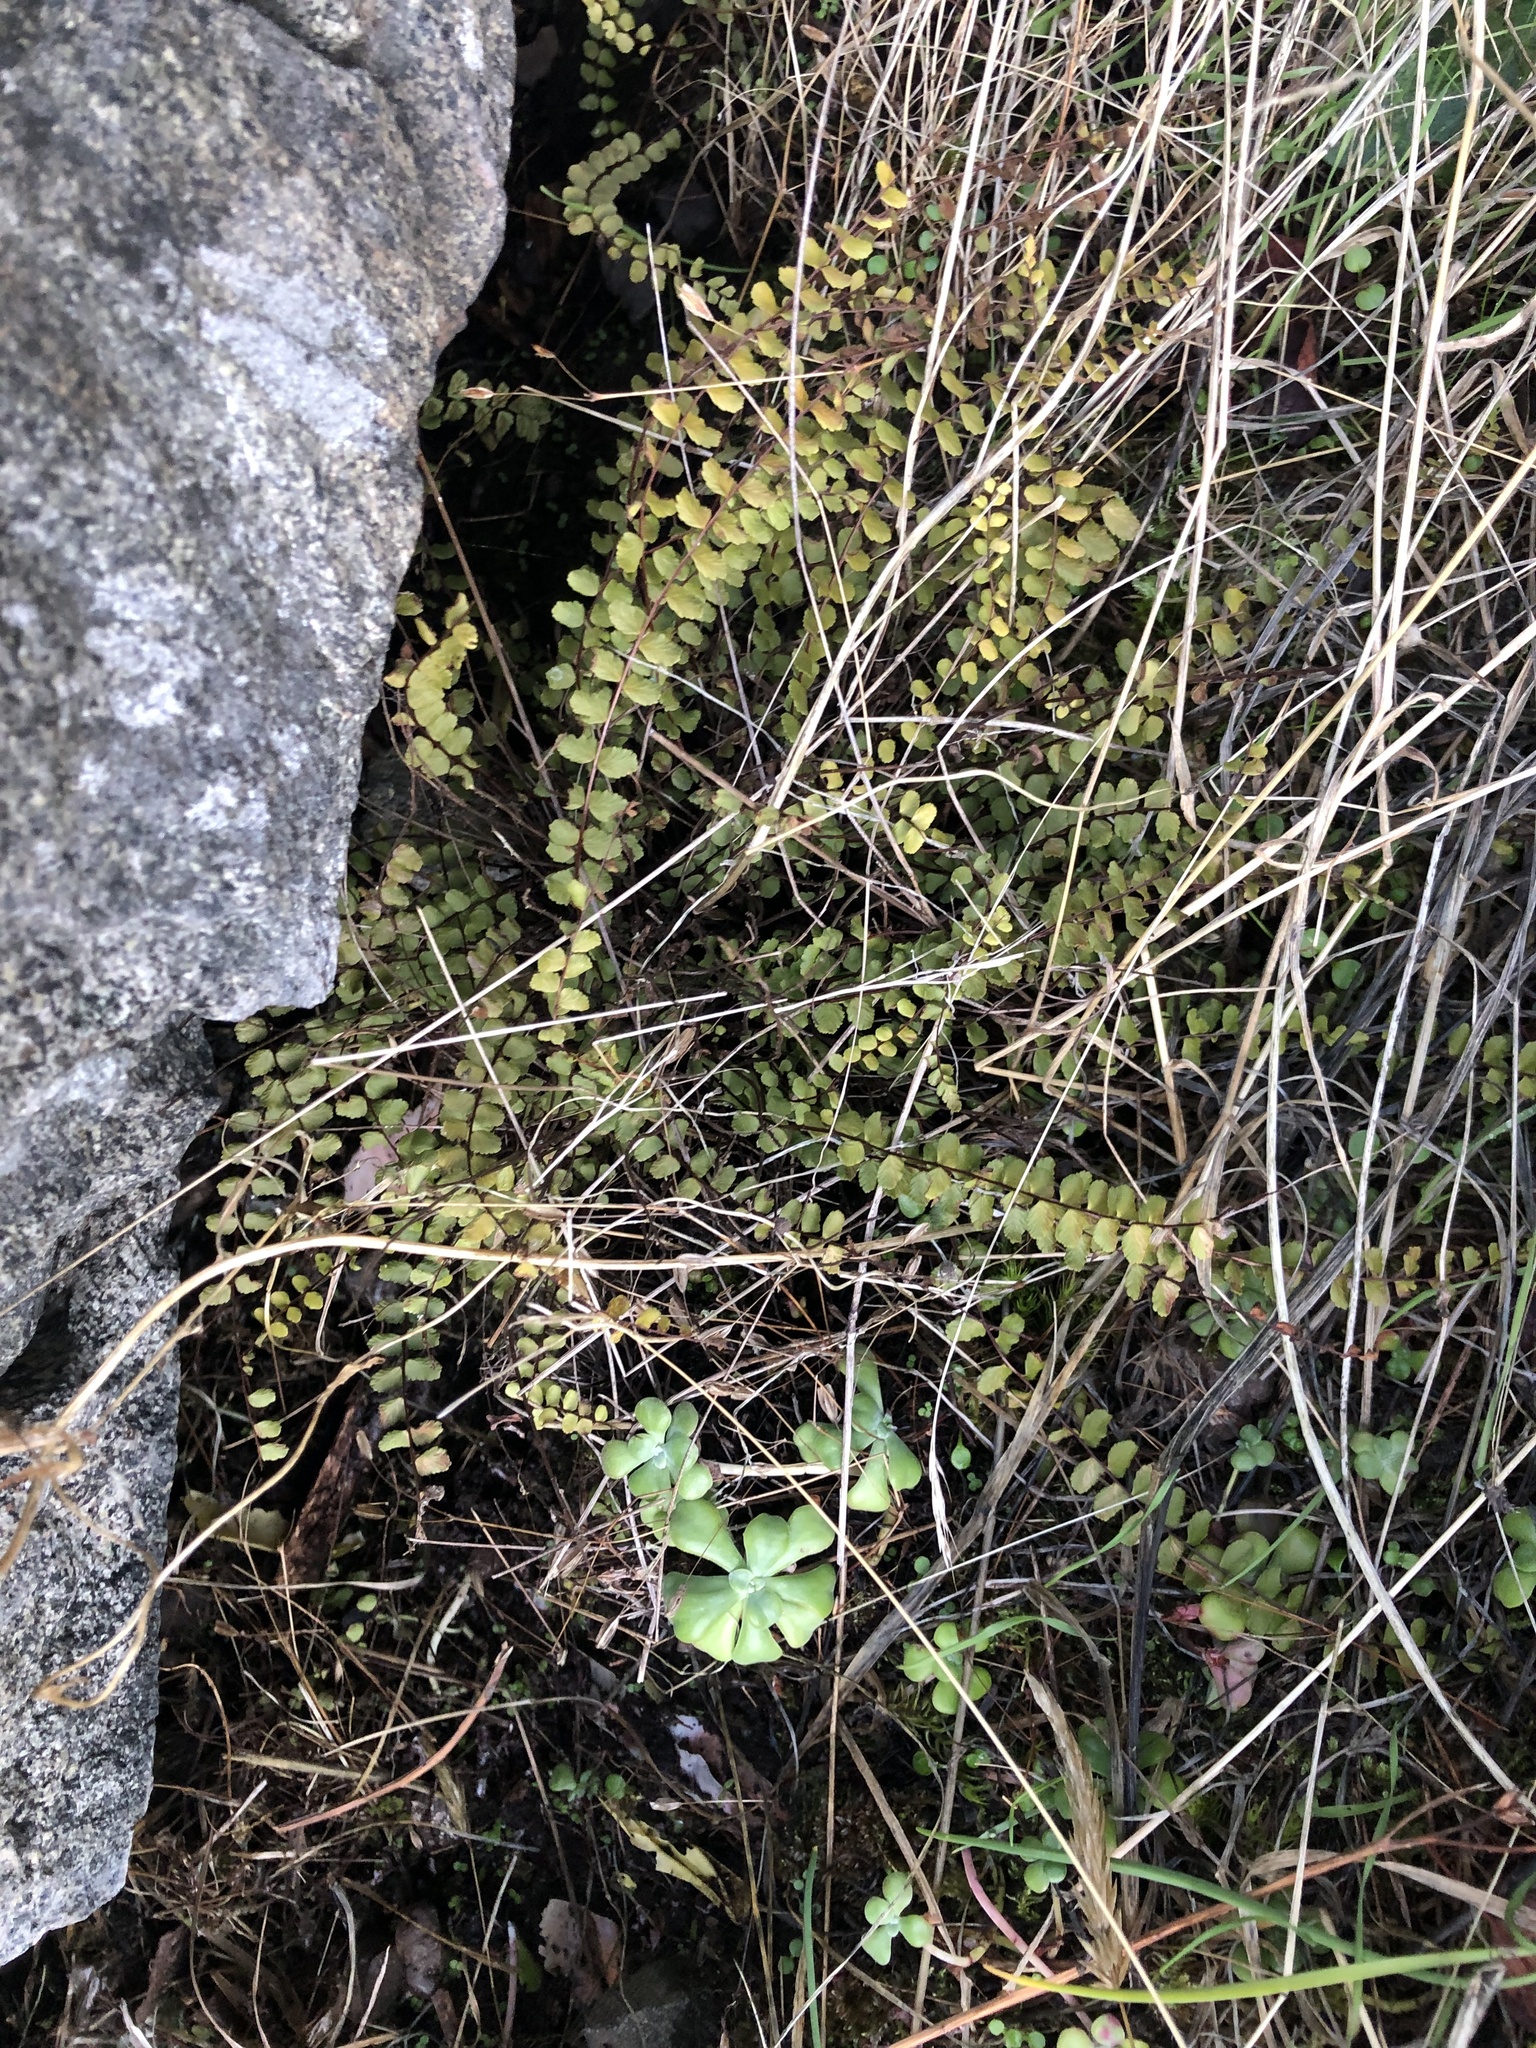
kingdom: Plantae
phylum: Tracheophyta
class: Polypodiopsida
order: Polypodiales
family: Aspleniaceae
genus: Asplenium
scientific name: Asplenium trichomanes
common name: Maidenhair spleenwort
